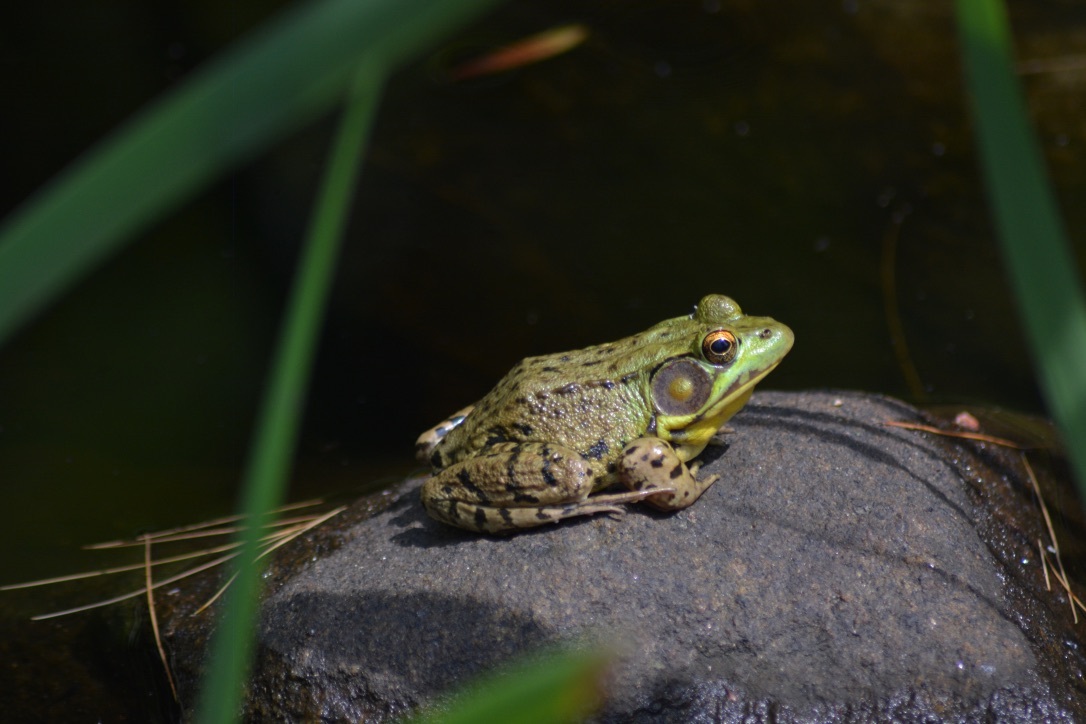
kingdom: Animalia
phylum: Chordata
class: Amphibia
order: Anura
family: Ranidae
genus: Lithobates
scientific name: Lithobates clamitans
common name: Green frog
